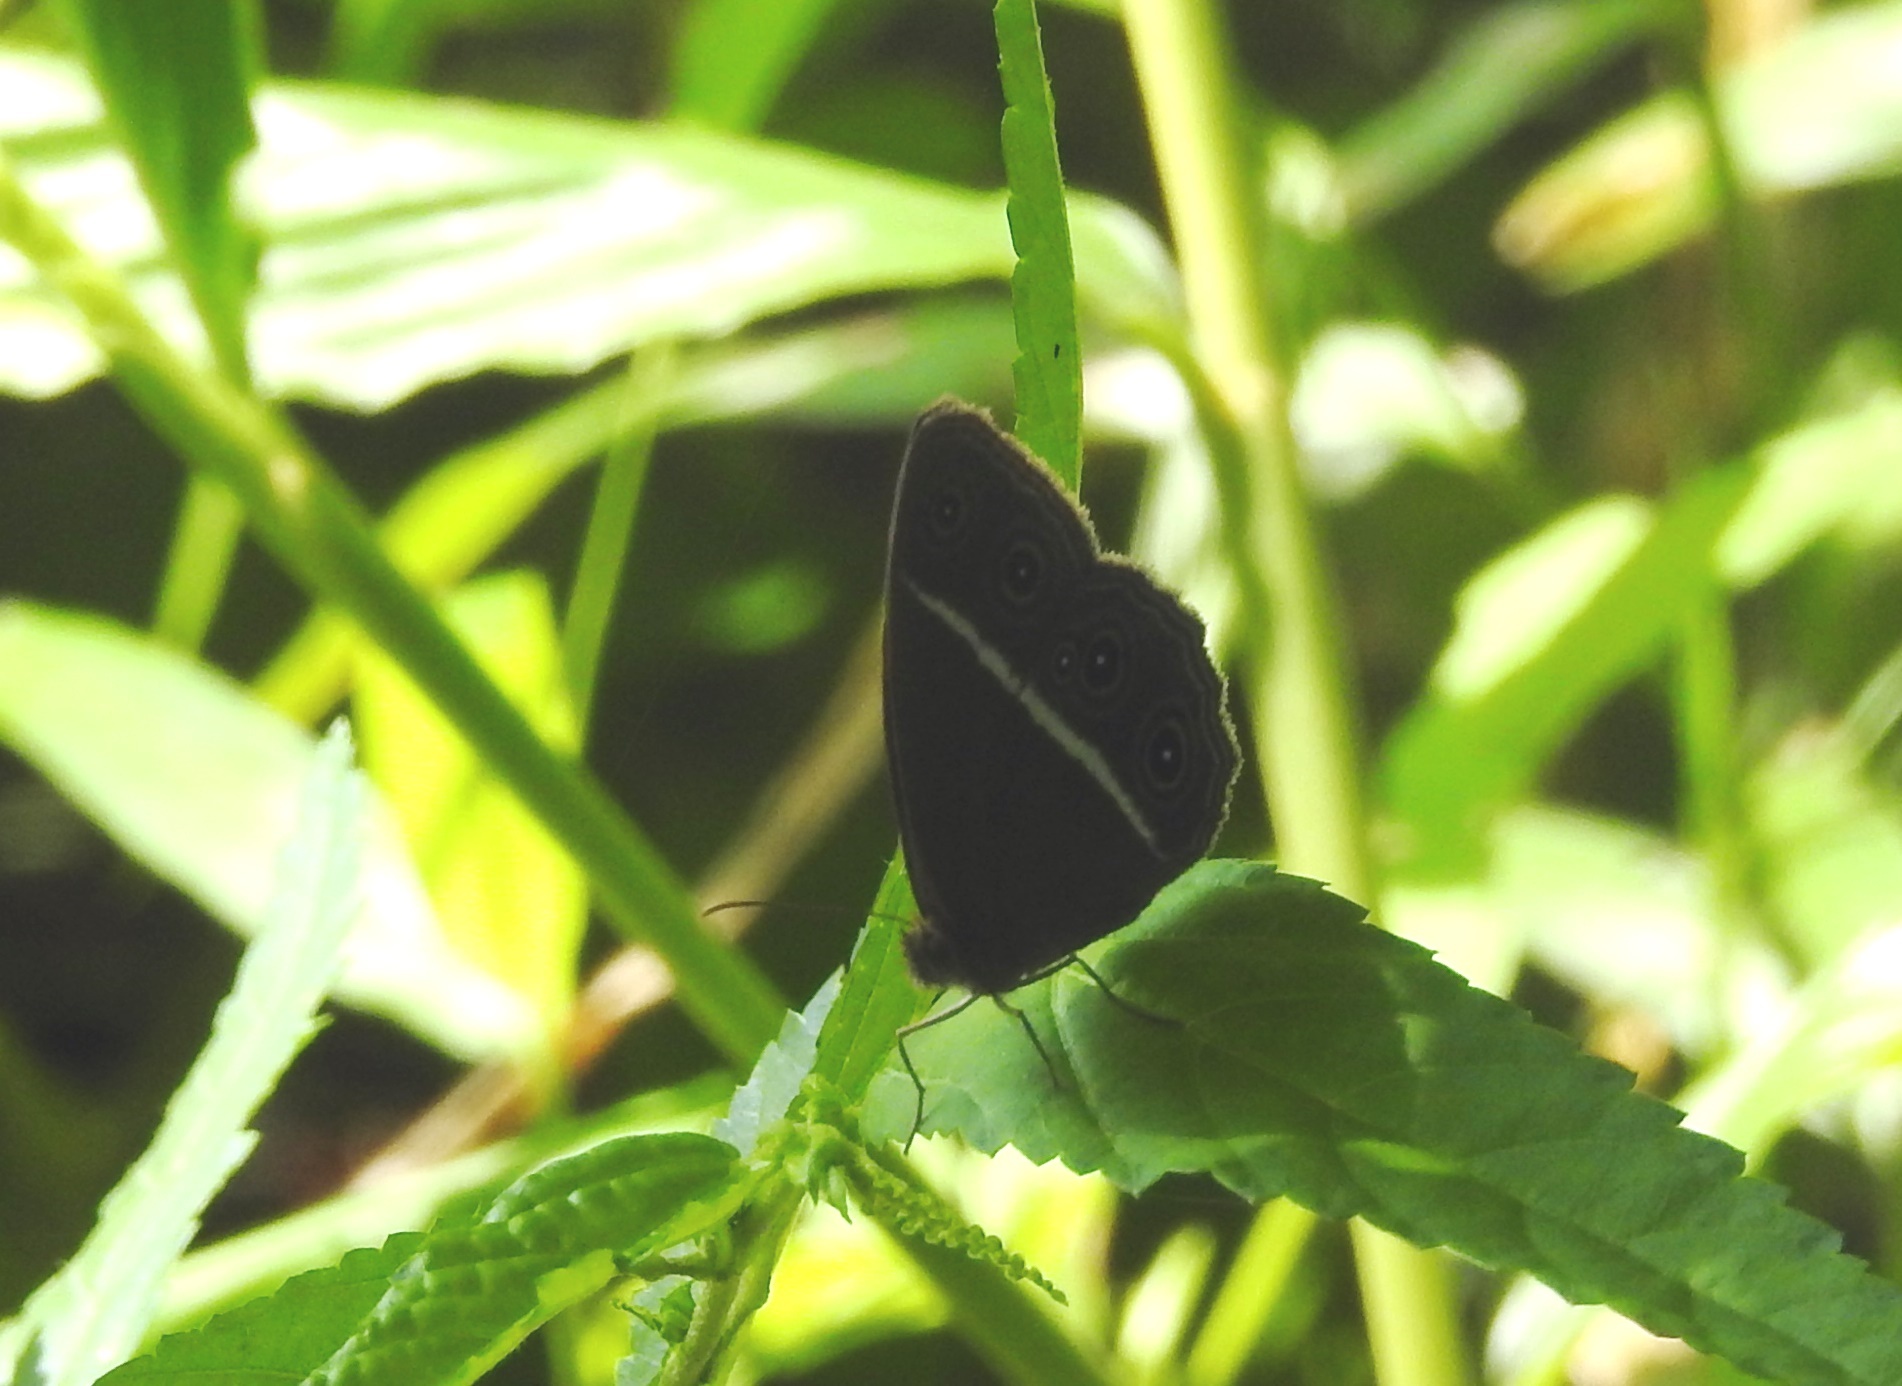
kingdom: Animalia
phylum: Arthropoda
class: Insecta
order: Lepidoptera
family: Nymphalidae
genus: Orsotriaena
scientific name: Orsotriaena medus
